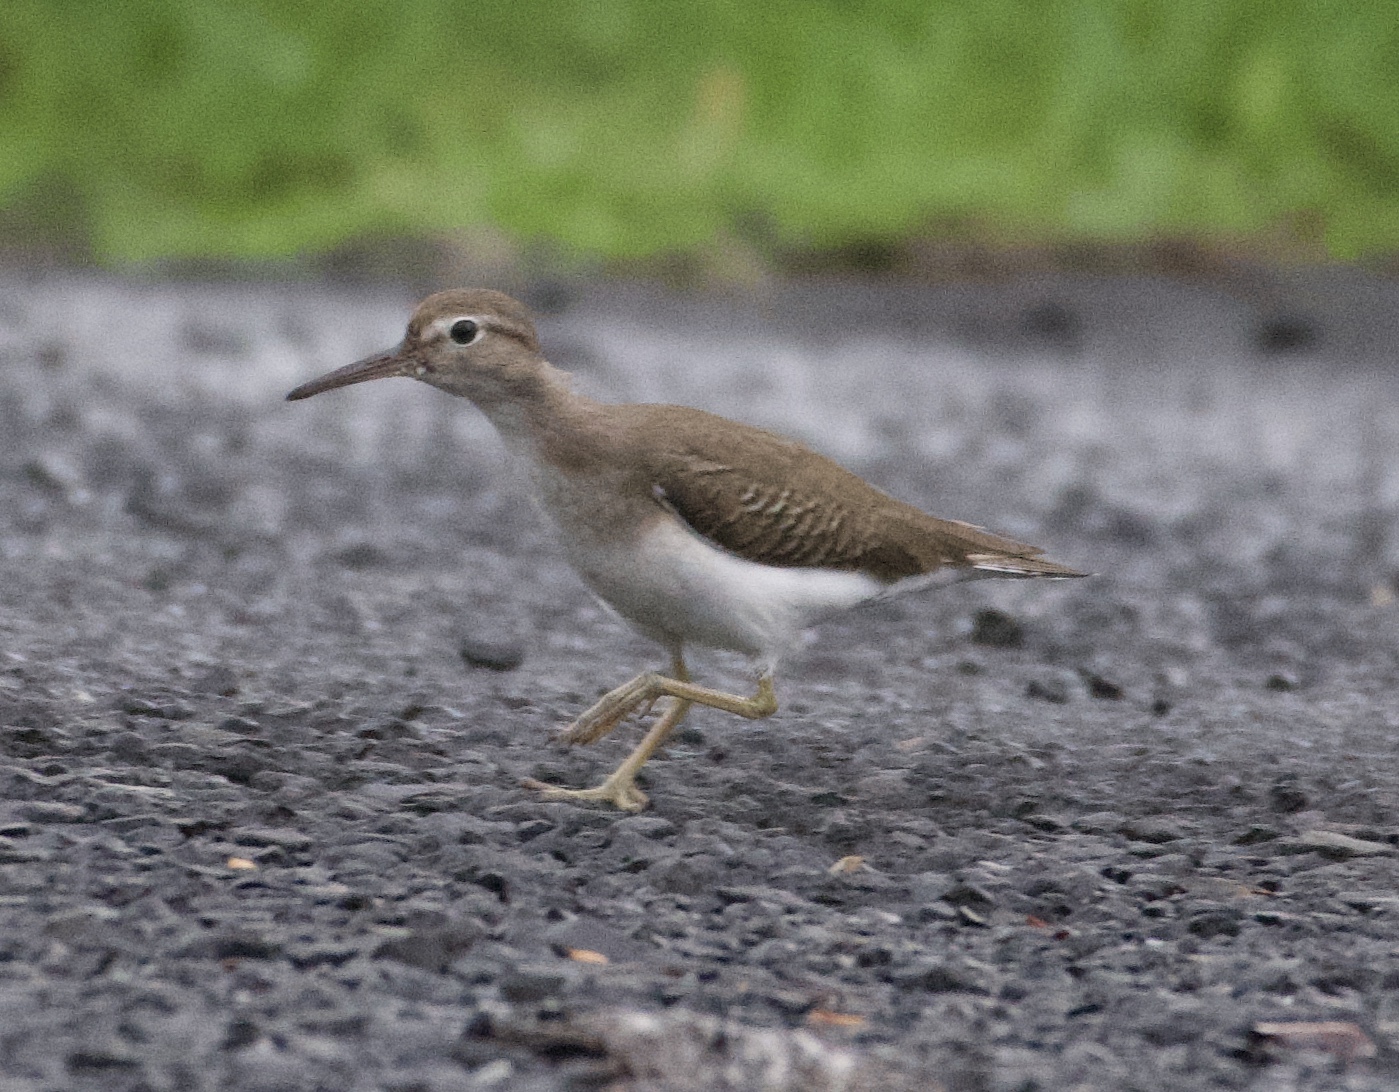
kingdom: Animalia
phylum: Chordata
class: Aves
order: Charadriiformes
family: Scolopacidae
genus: Actitis
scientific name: Actitis macularius
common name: Spotted sandpiper
